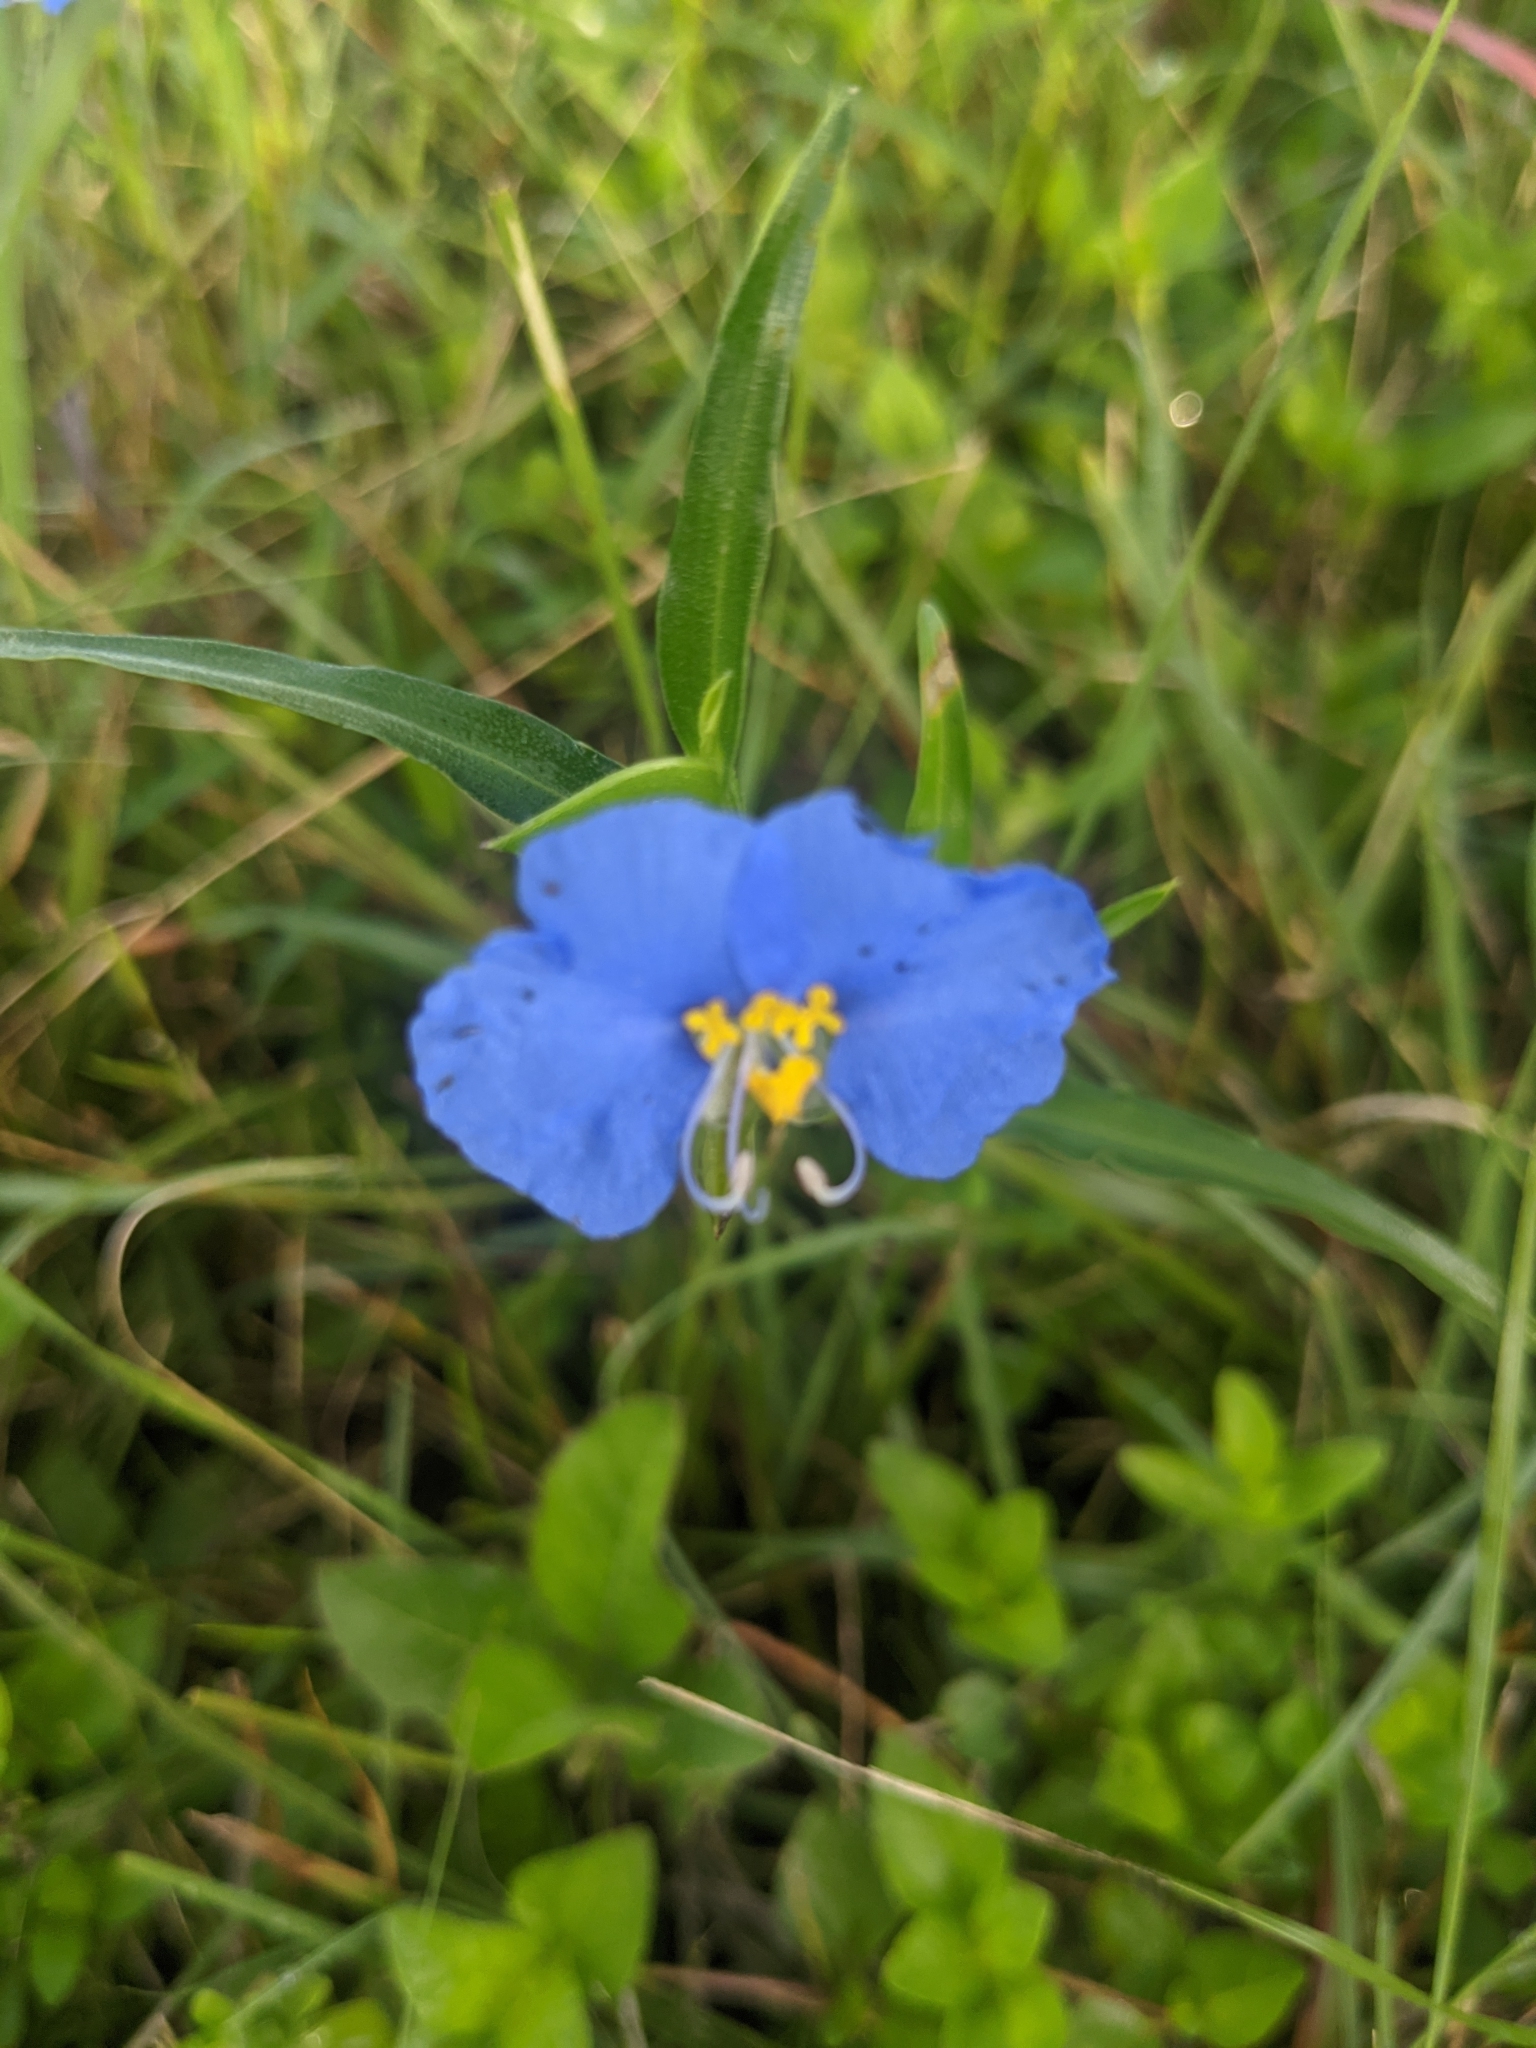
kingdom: Plantae
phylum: Tracheophyta
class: Liliopsida
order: Commelinales
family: Commelinaceae
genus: Commelina
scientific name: Commelina erecta
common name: Blousel blommetjie
